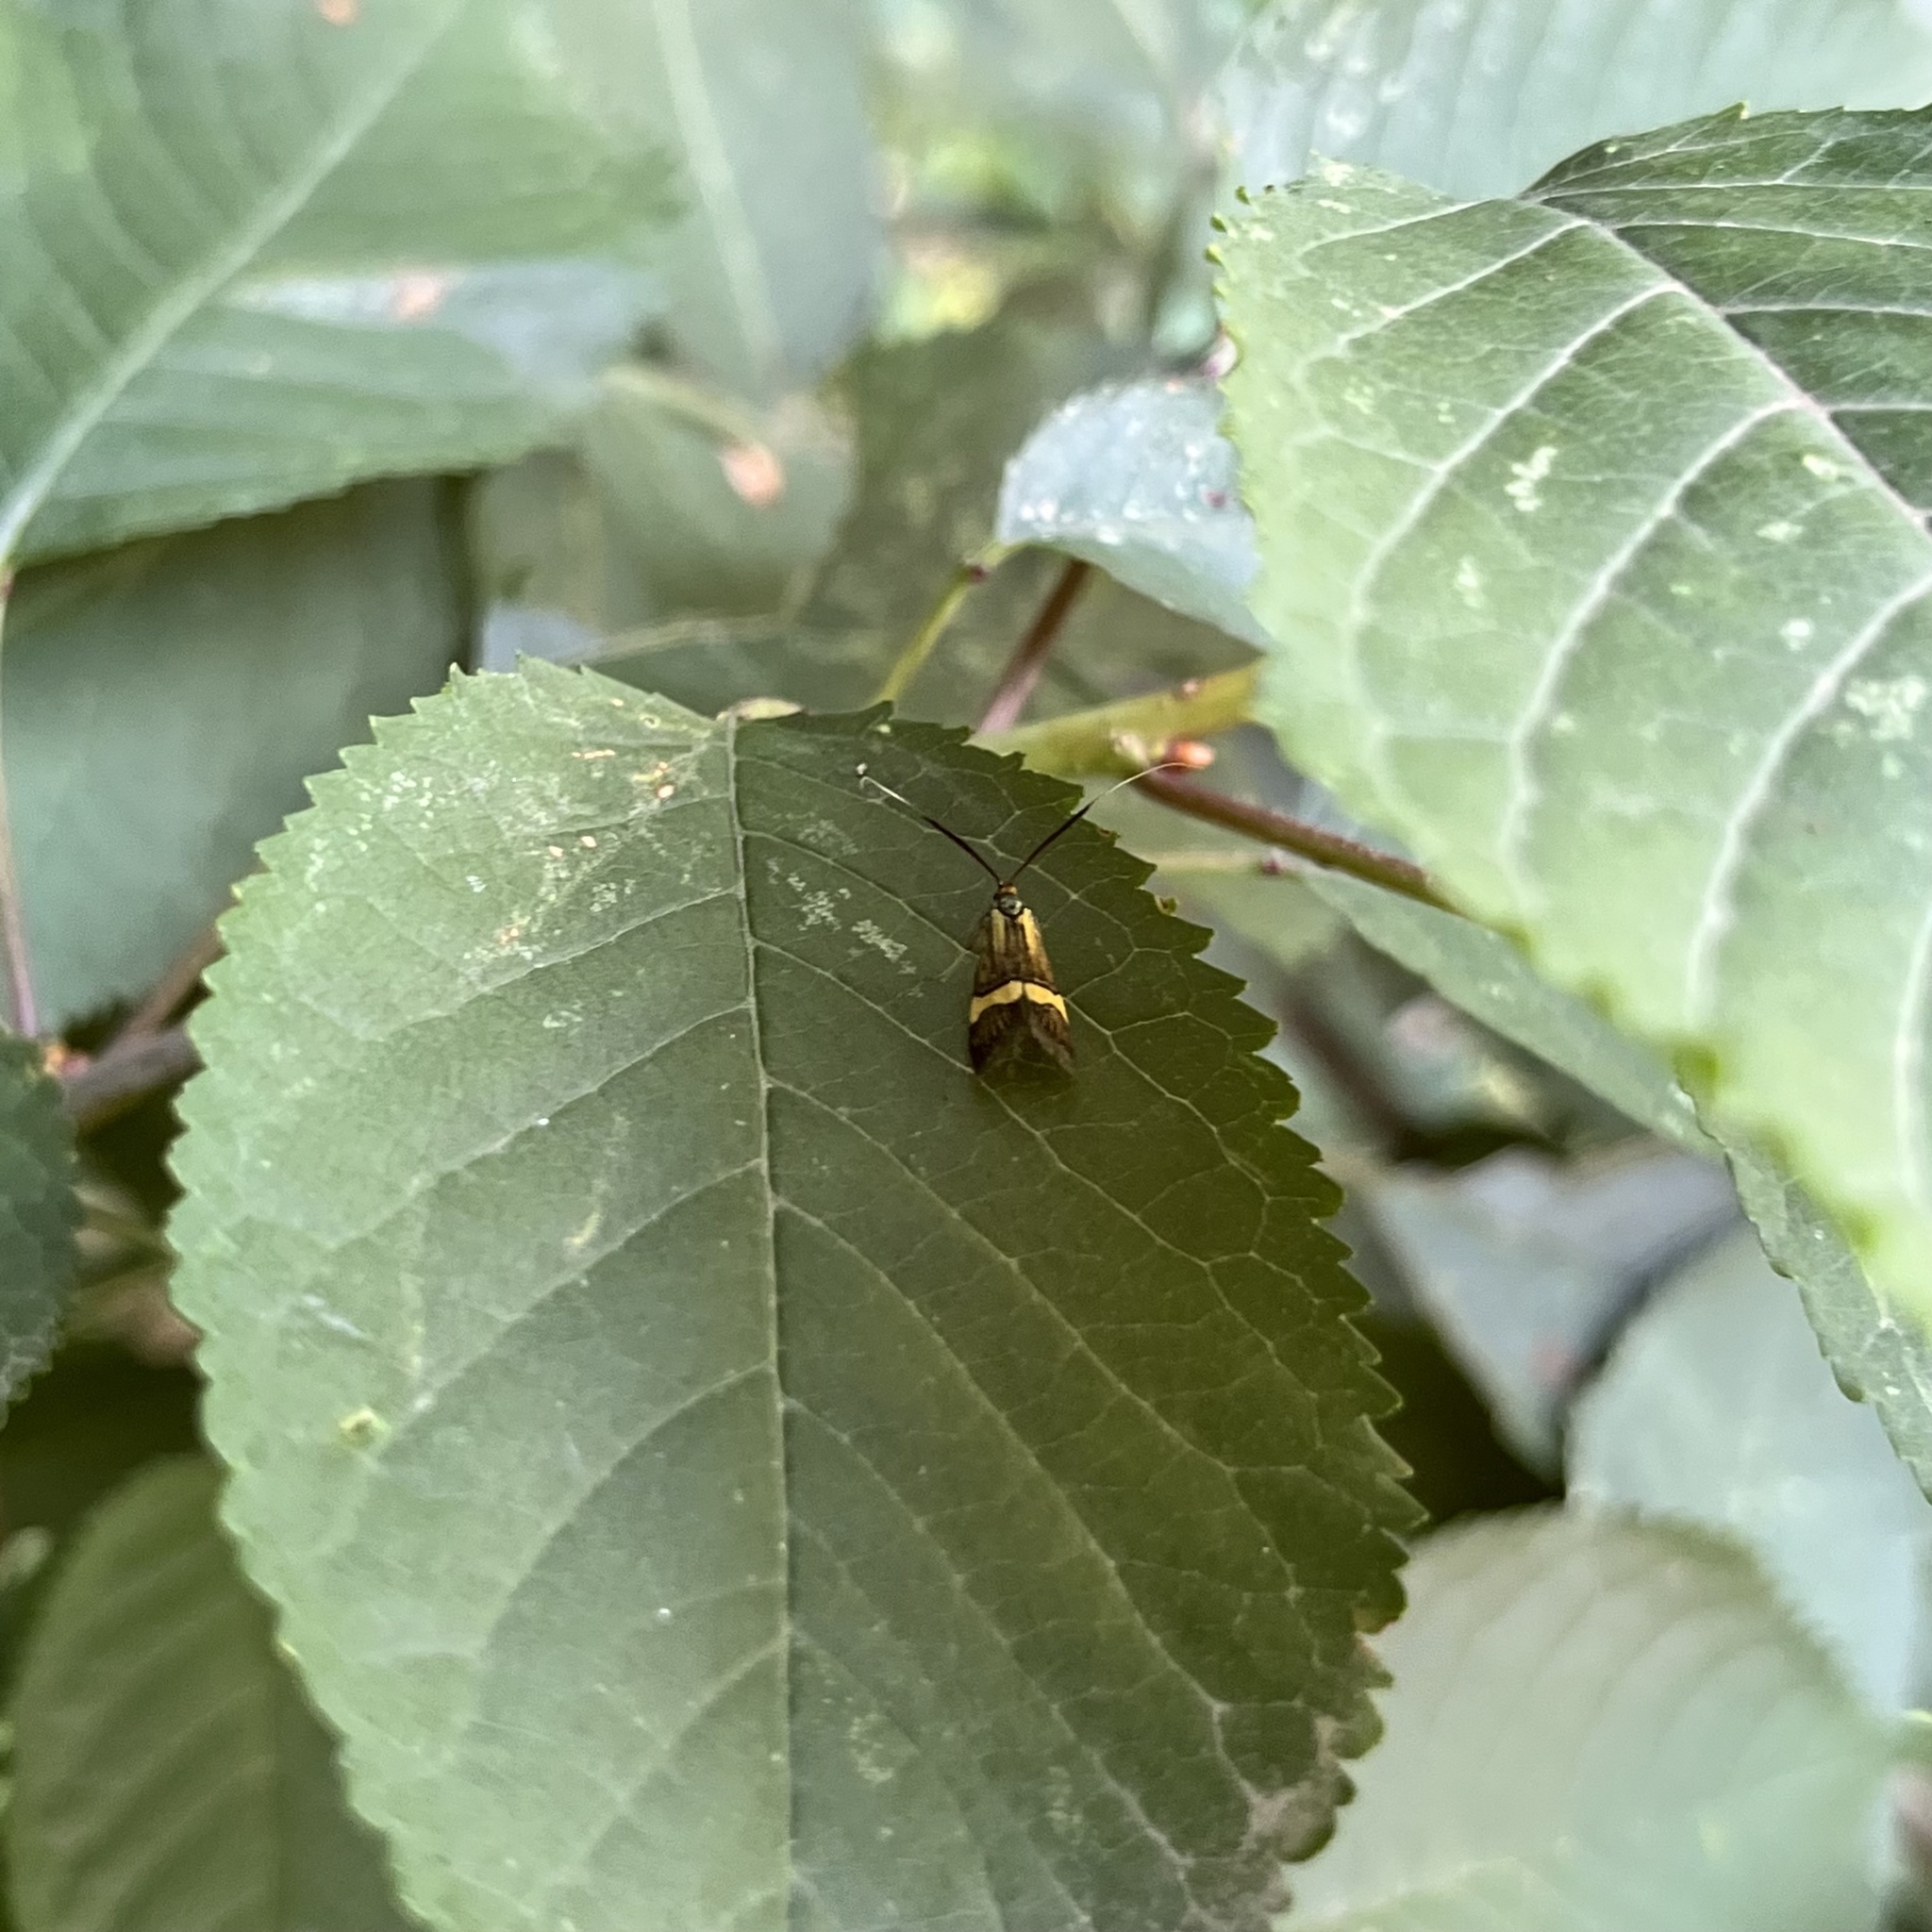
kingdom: Animalia
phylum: Arthropoda
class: Insecta
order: Lepidoptera
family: Adelidae
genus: Nemophora
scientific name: Nemophora degeerella
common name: Yellow-barred long-horn
